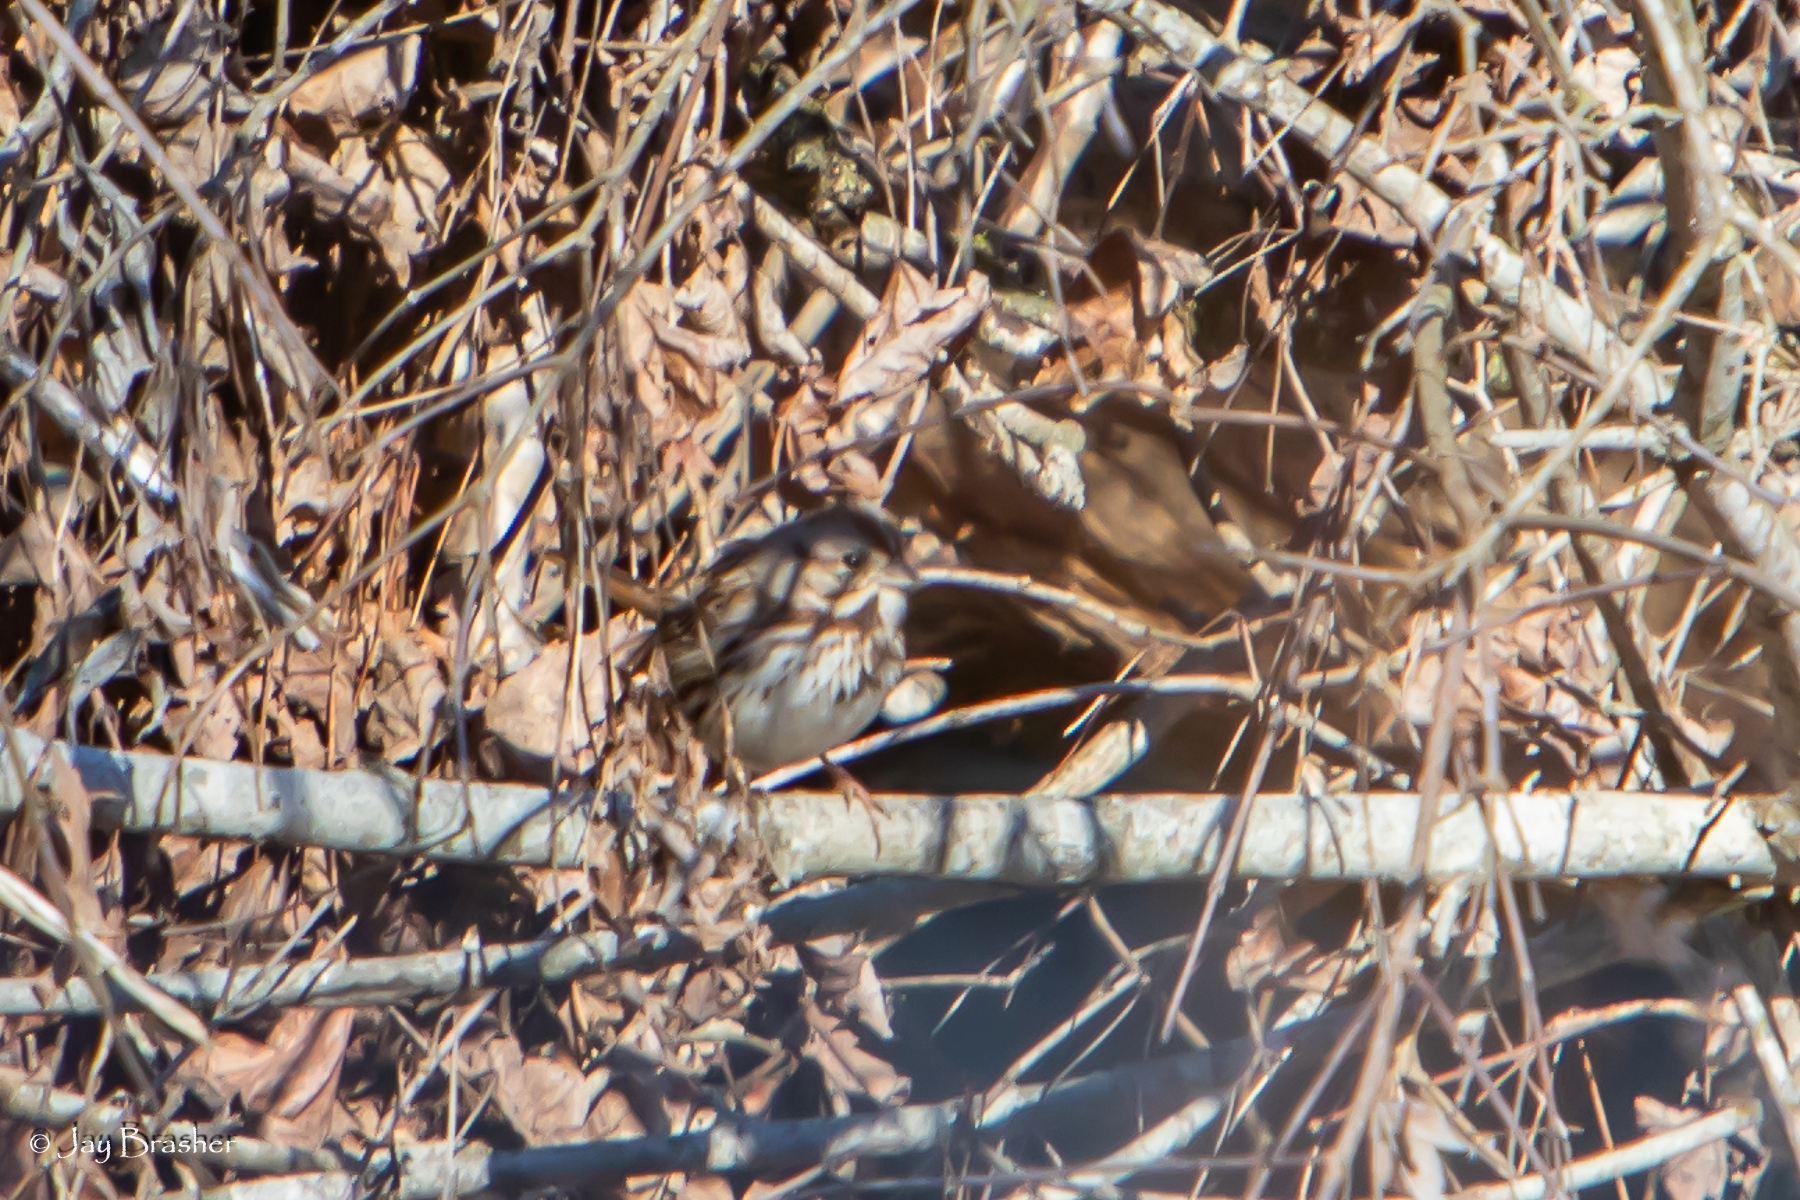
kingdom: Animalia
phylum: Chordata
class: Aves
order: Passeriformes
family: Passerellidae
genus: Melospiza
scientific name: Melospiza melodia
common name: Song sparrow
